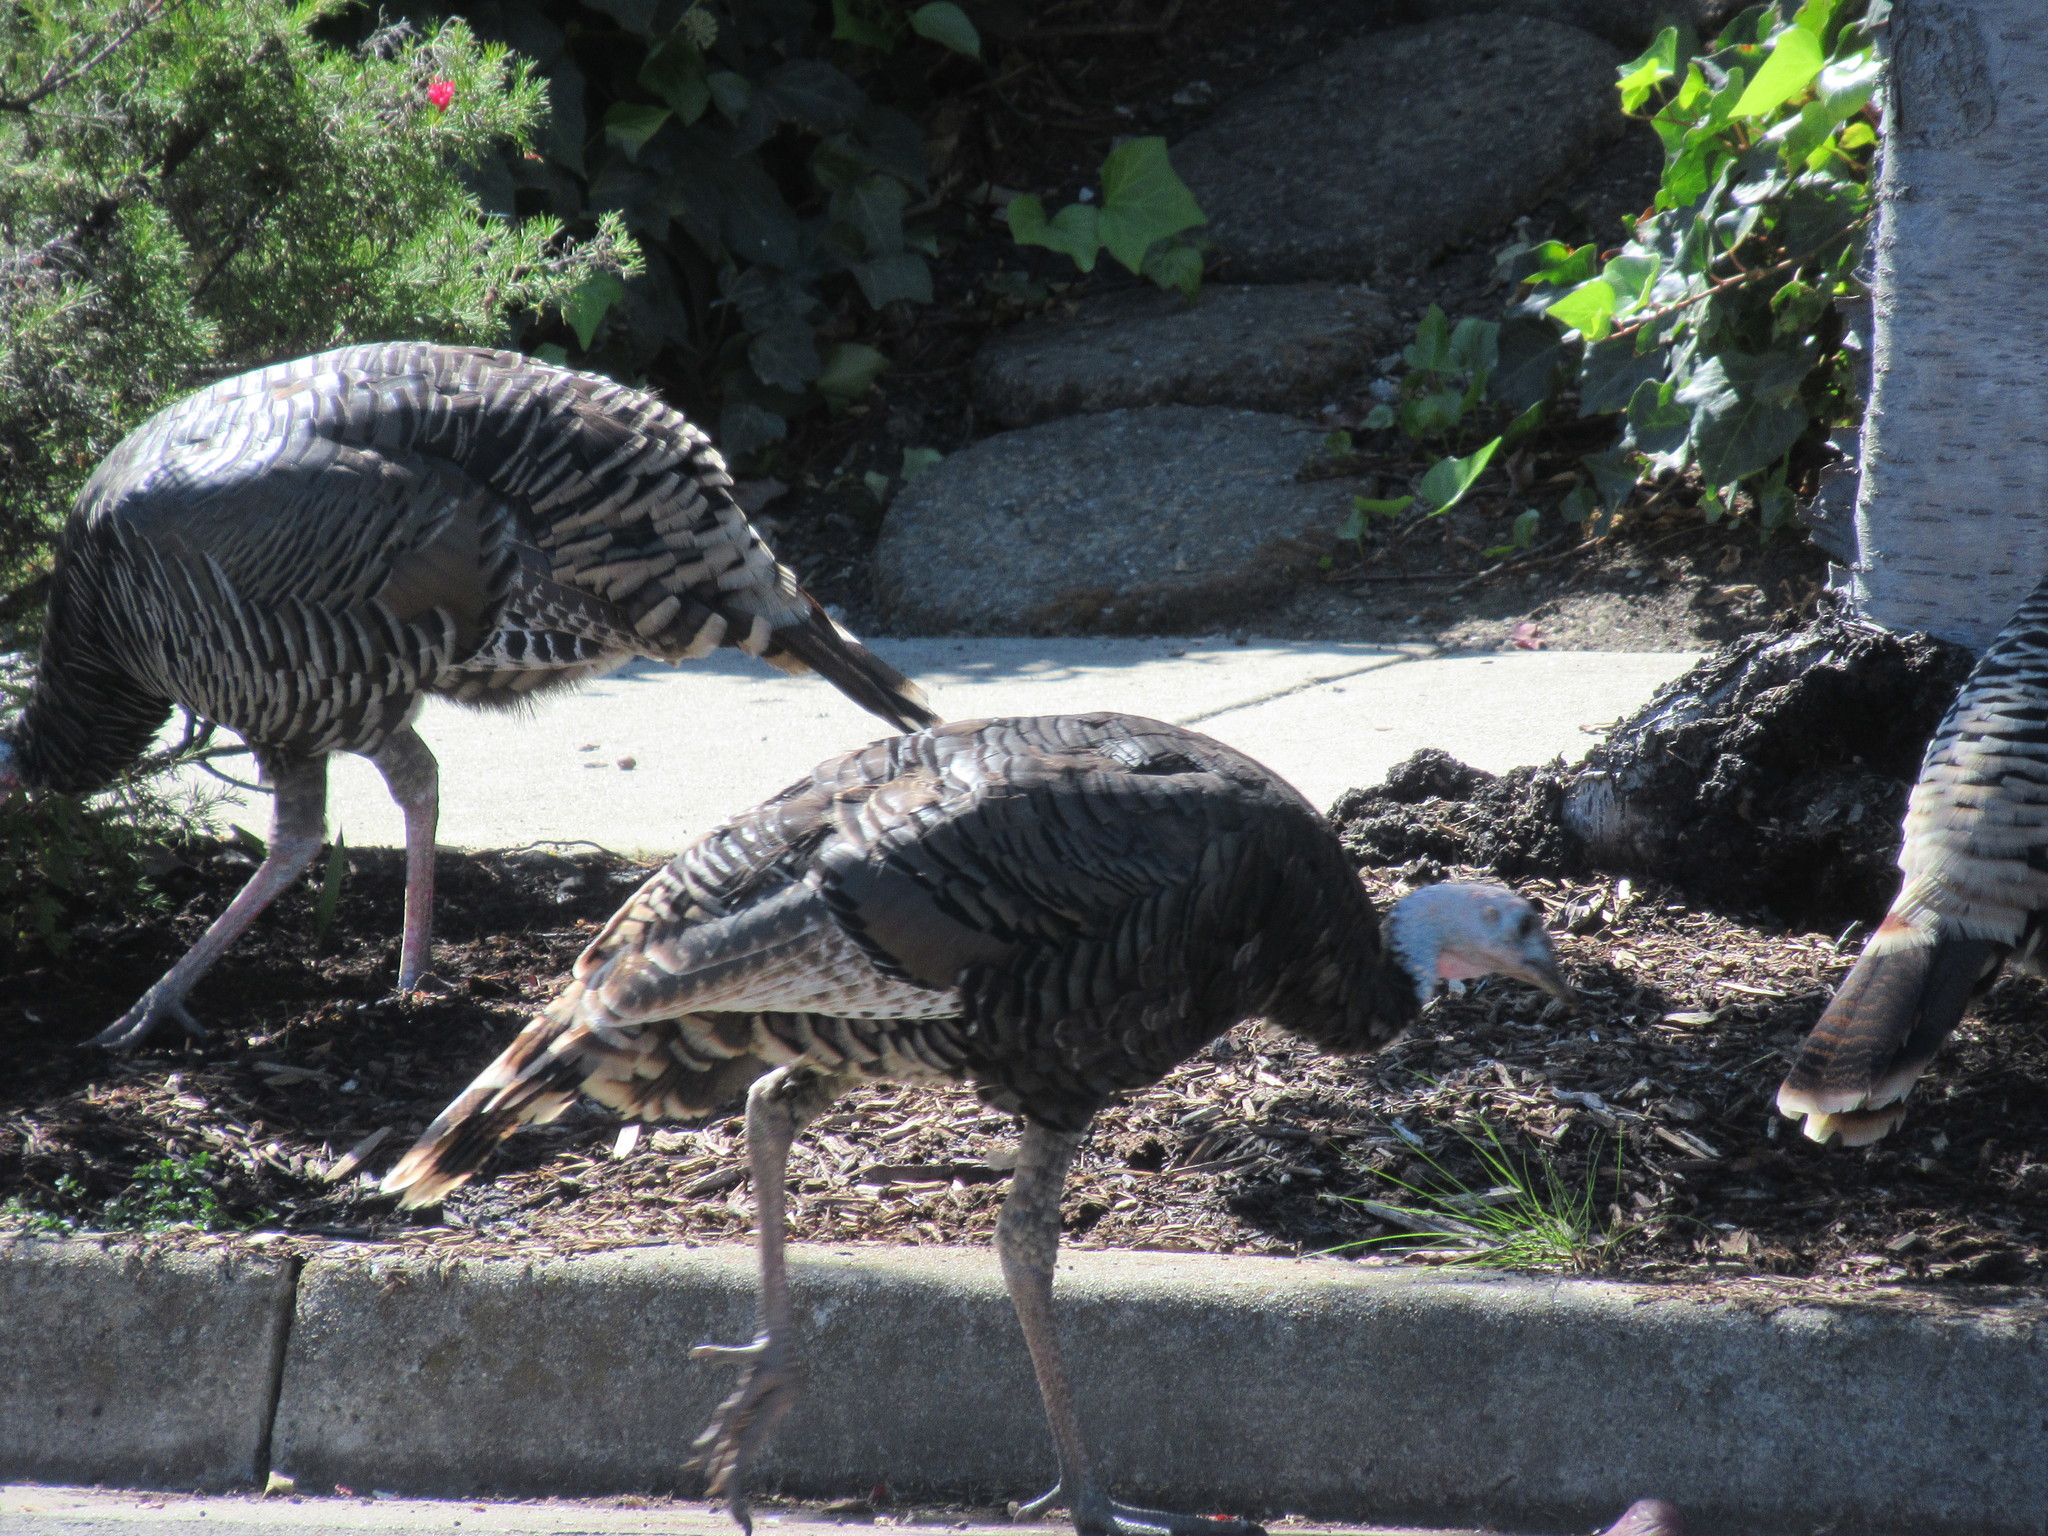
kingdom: Animalia
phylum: Chordata
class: Aves
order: Galliformes
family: Phasianidae
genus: Meleagris
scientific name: Meleagris gallopavo
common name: Wild turkey
